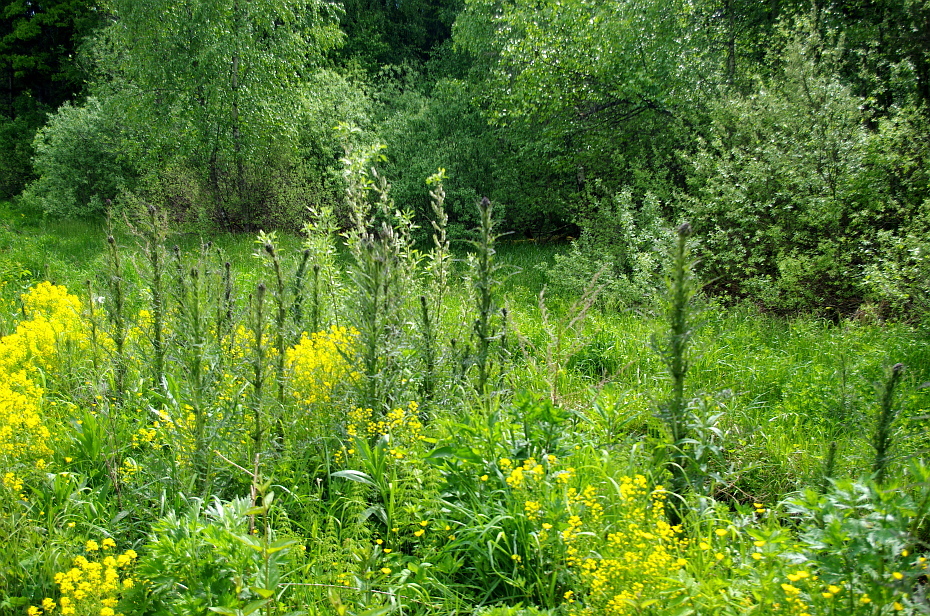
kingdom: Plantae
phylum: Tracheophyta
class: Magnoliopsida
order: Asterales
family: Asteraceae
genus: Cirsium
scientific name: Cirsium palustre
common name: Marsh thistle
